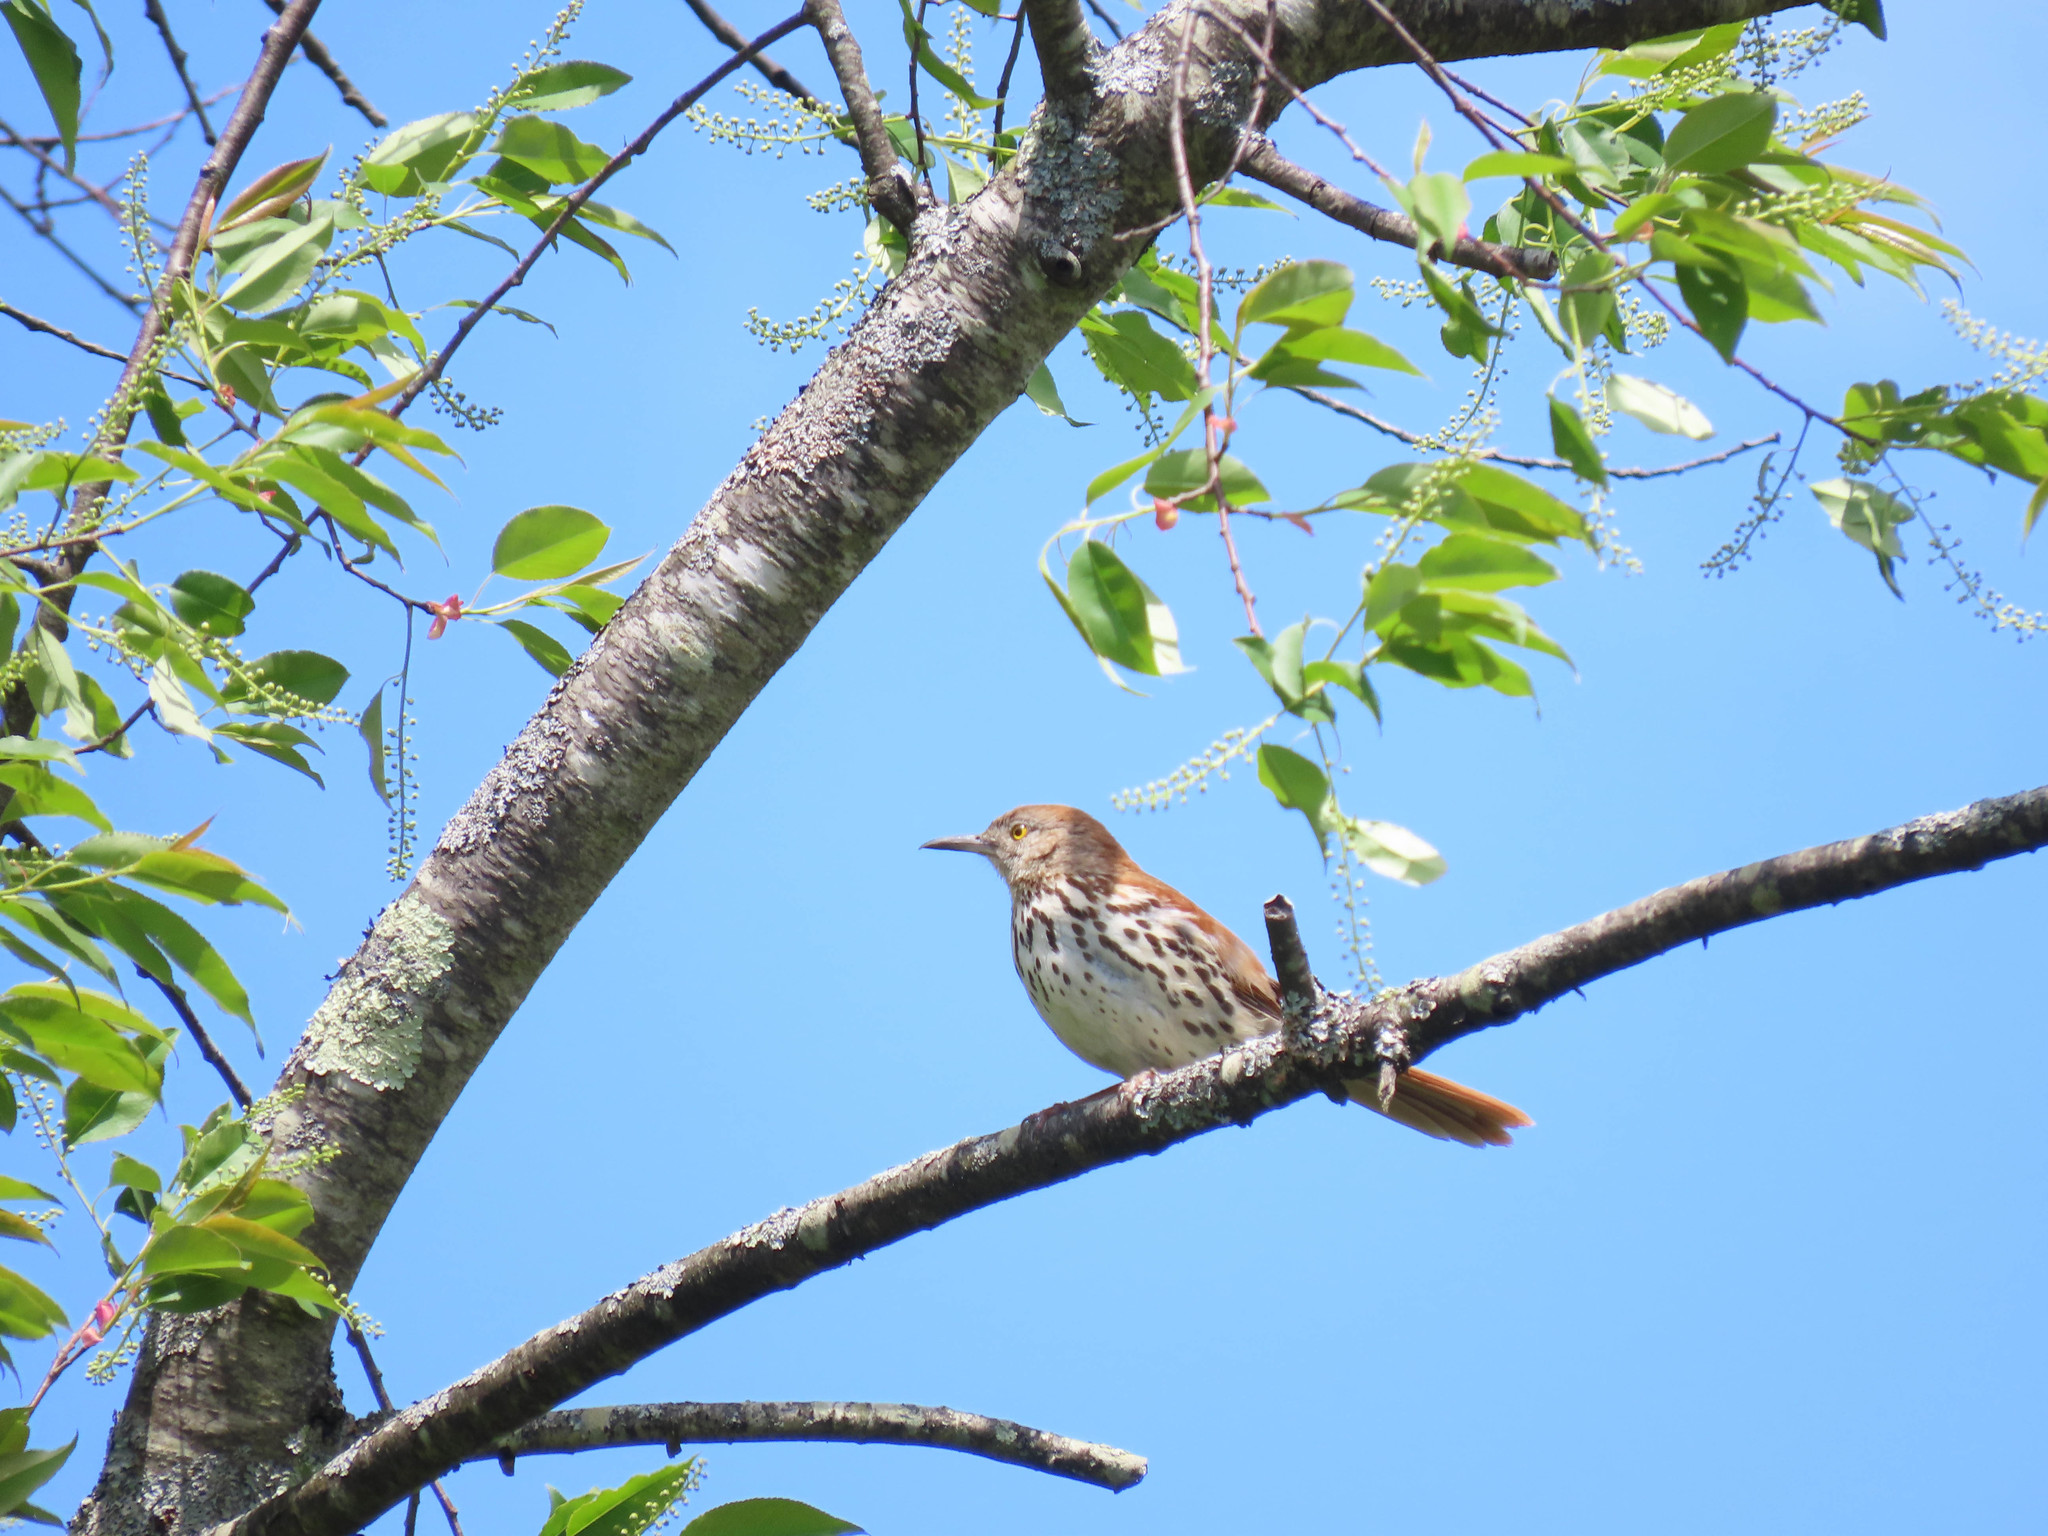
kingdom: Animalia
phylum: Chordata
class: Aves
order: Passeriformes
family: Mimidae
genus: Toxostoma
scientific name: Toxostoma rufum
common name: Brown thrasher
